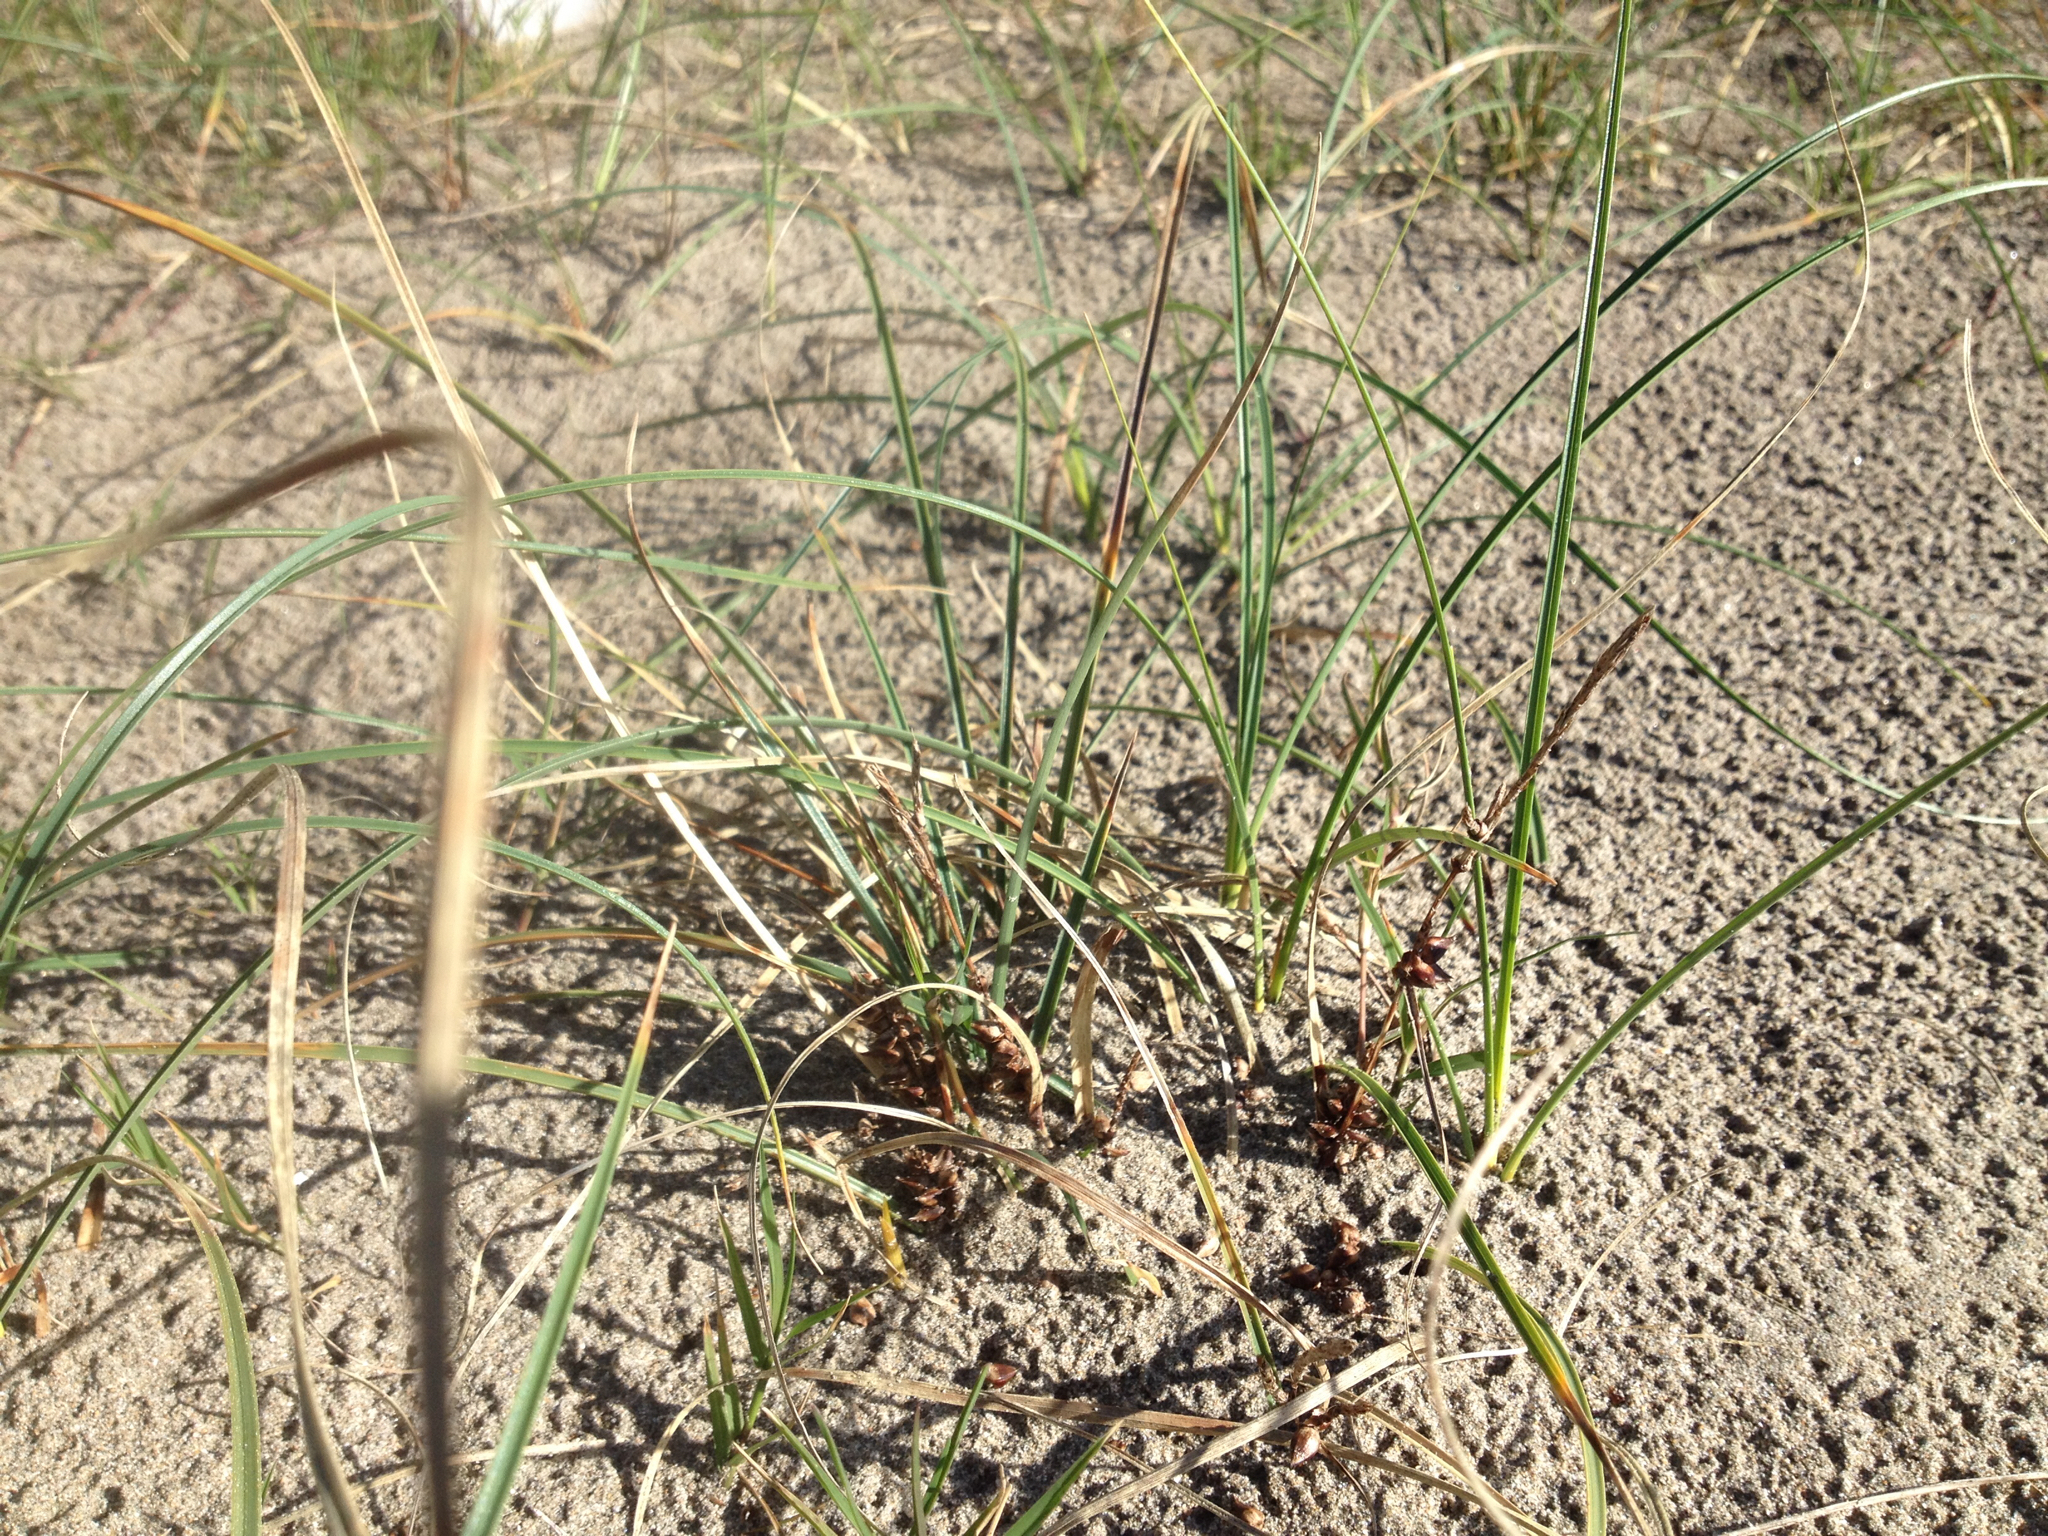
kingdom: Plantae
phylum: Tracheophyta
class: Liliopsida
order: Poales
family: Cyperaceae
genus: Carex
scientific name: Carex pumila
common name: Dwarf sedge
